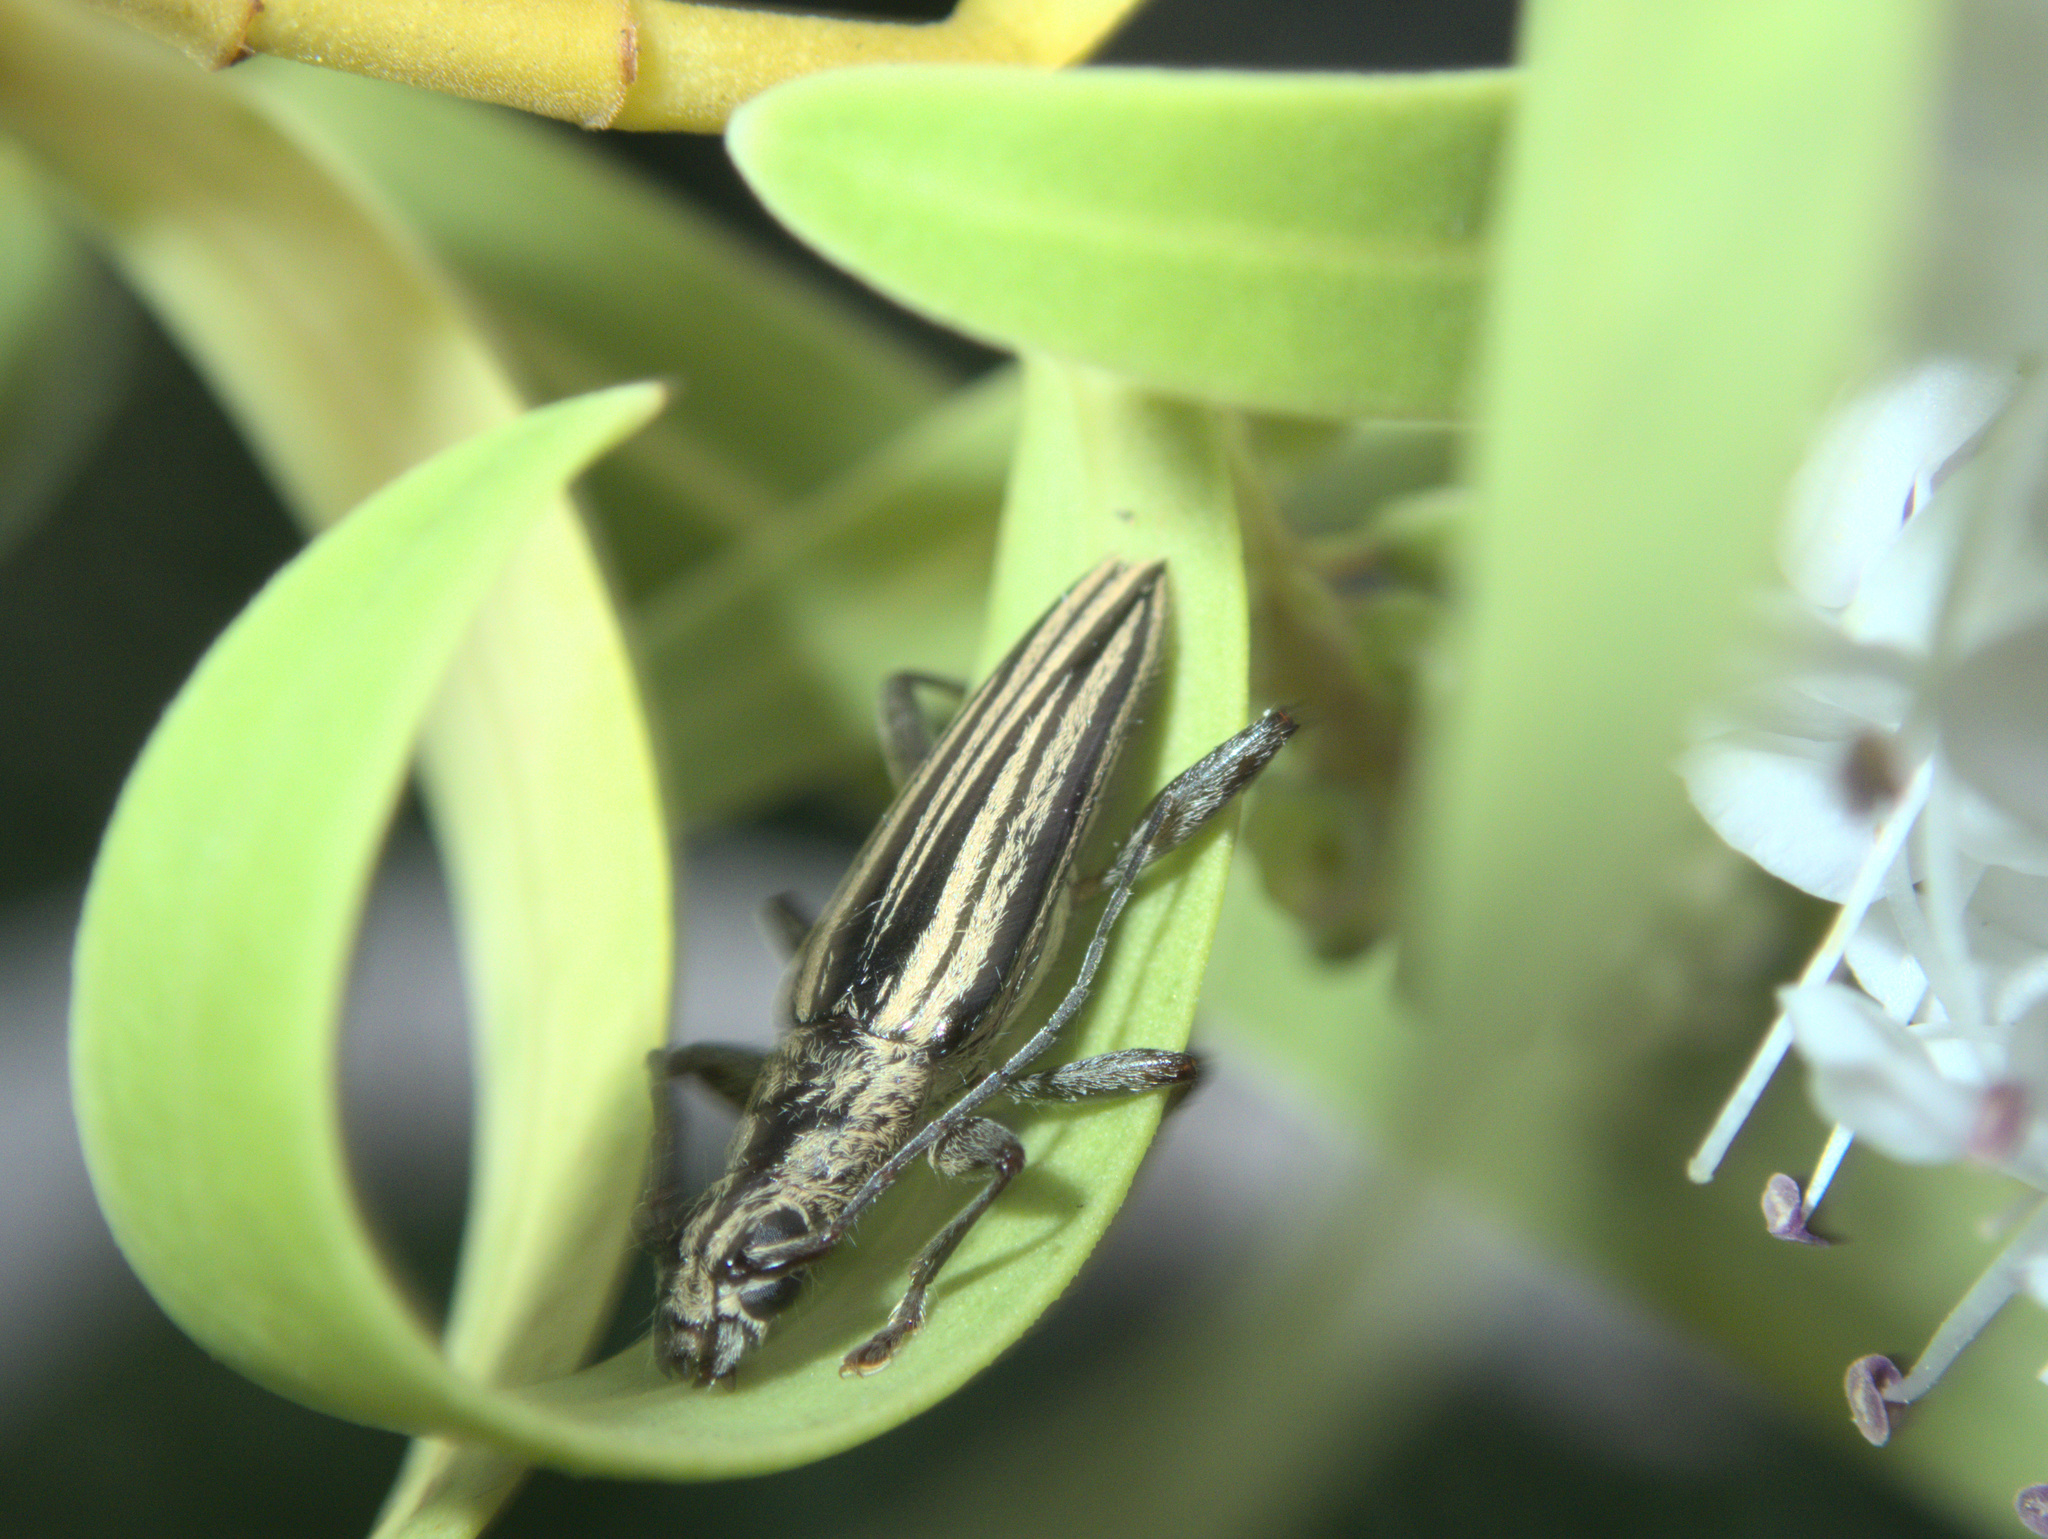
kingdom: Animalia
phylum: Arthropoda
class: Insecta
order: Coleoptera
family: Cerambycidae
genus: Coptomma
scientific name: Coptomma sulcatum
